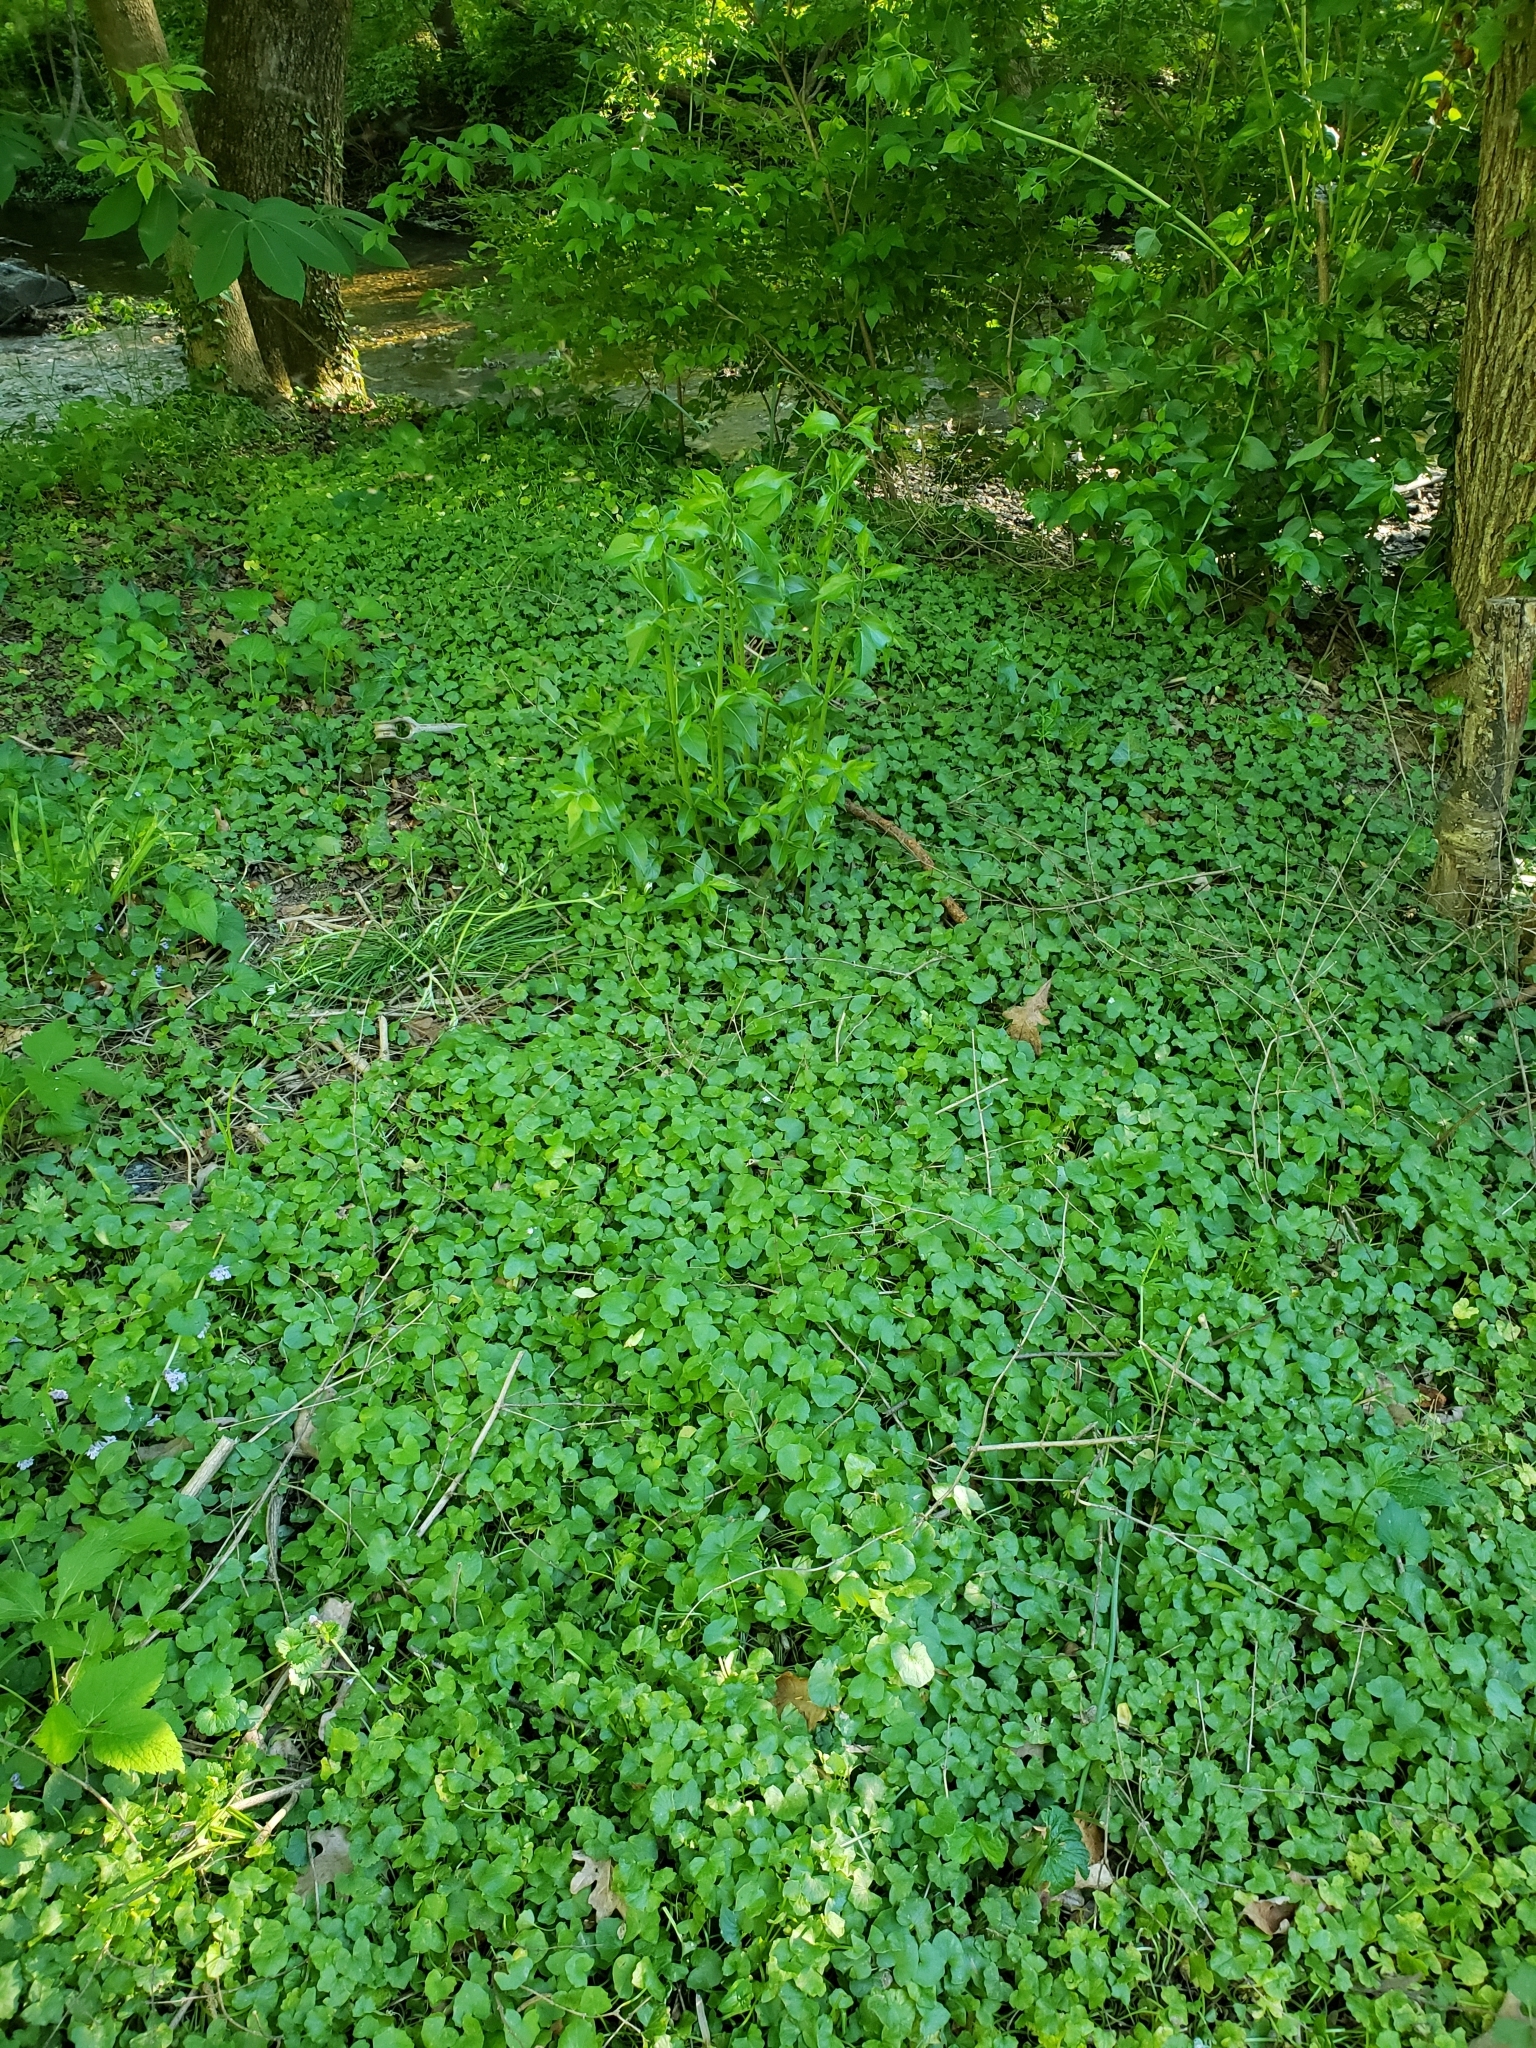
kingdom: Plantae
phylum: Tracheophyta
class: Magnoliopsida
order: Ranunculales
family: Ranunculaceae
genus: Ficaria
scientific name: Ficaria verna
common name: Lesser celandine
